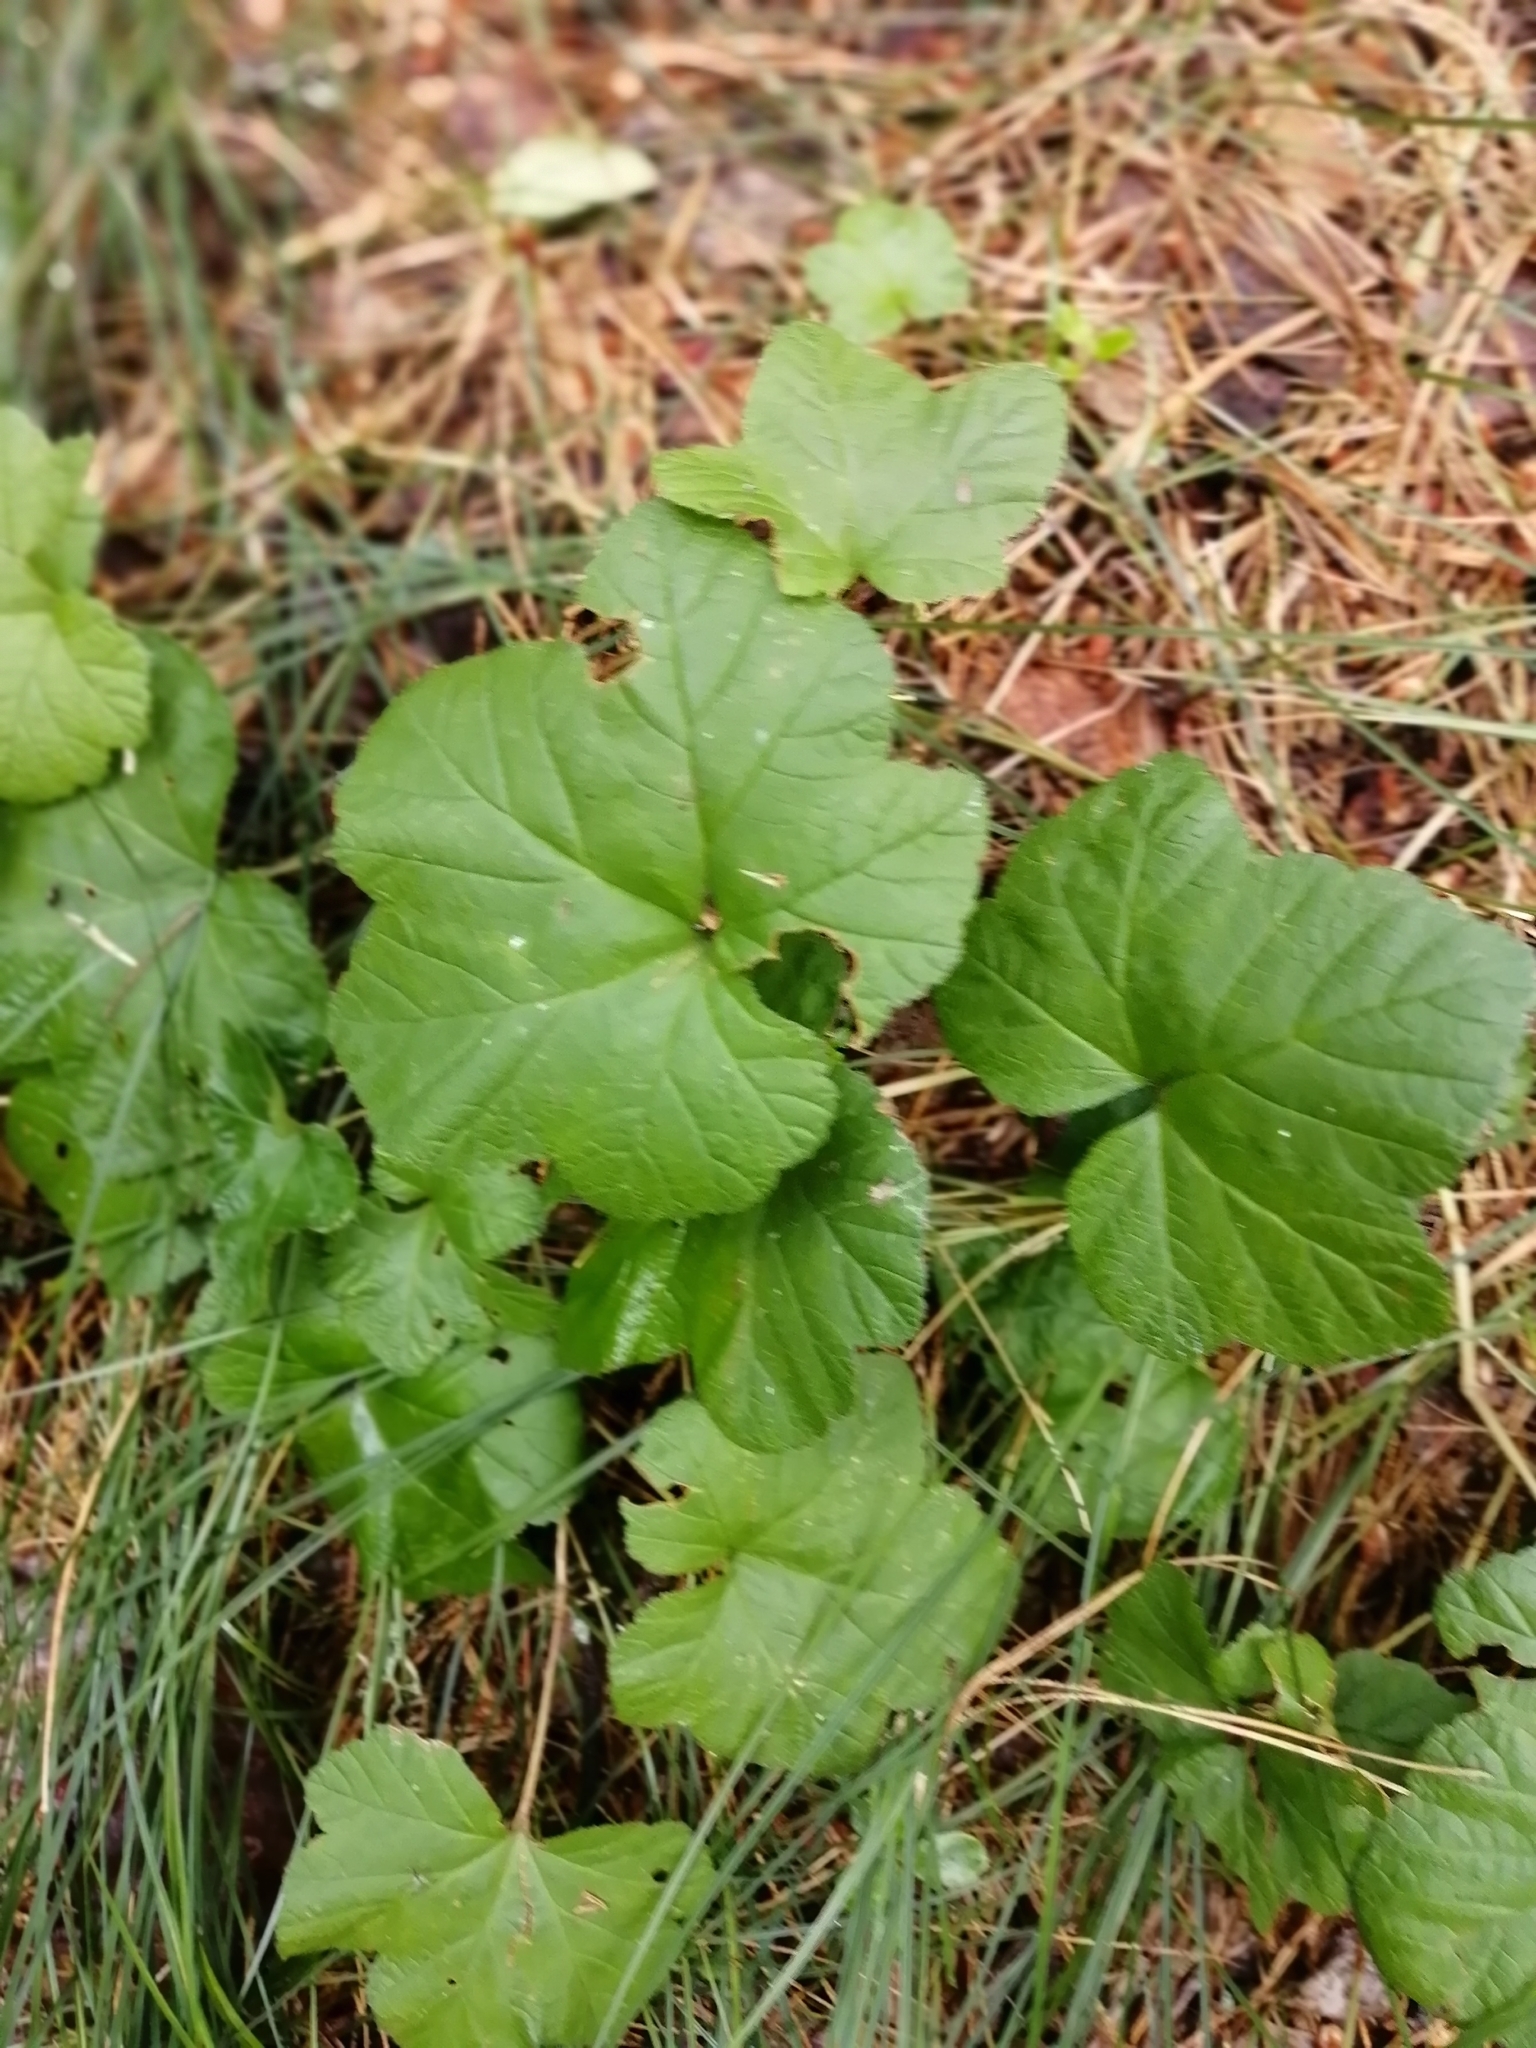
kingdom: Plantae
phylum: Tracheophyta
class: Magnoliopsida
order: Rosales
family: Rosaceae
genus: Rubus
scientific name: Rubus chamaemorus
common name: Cloudberry
